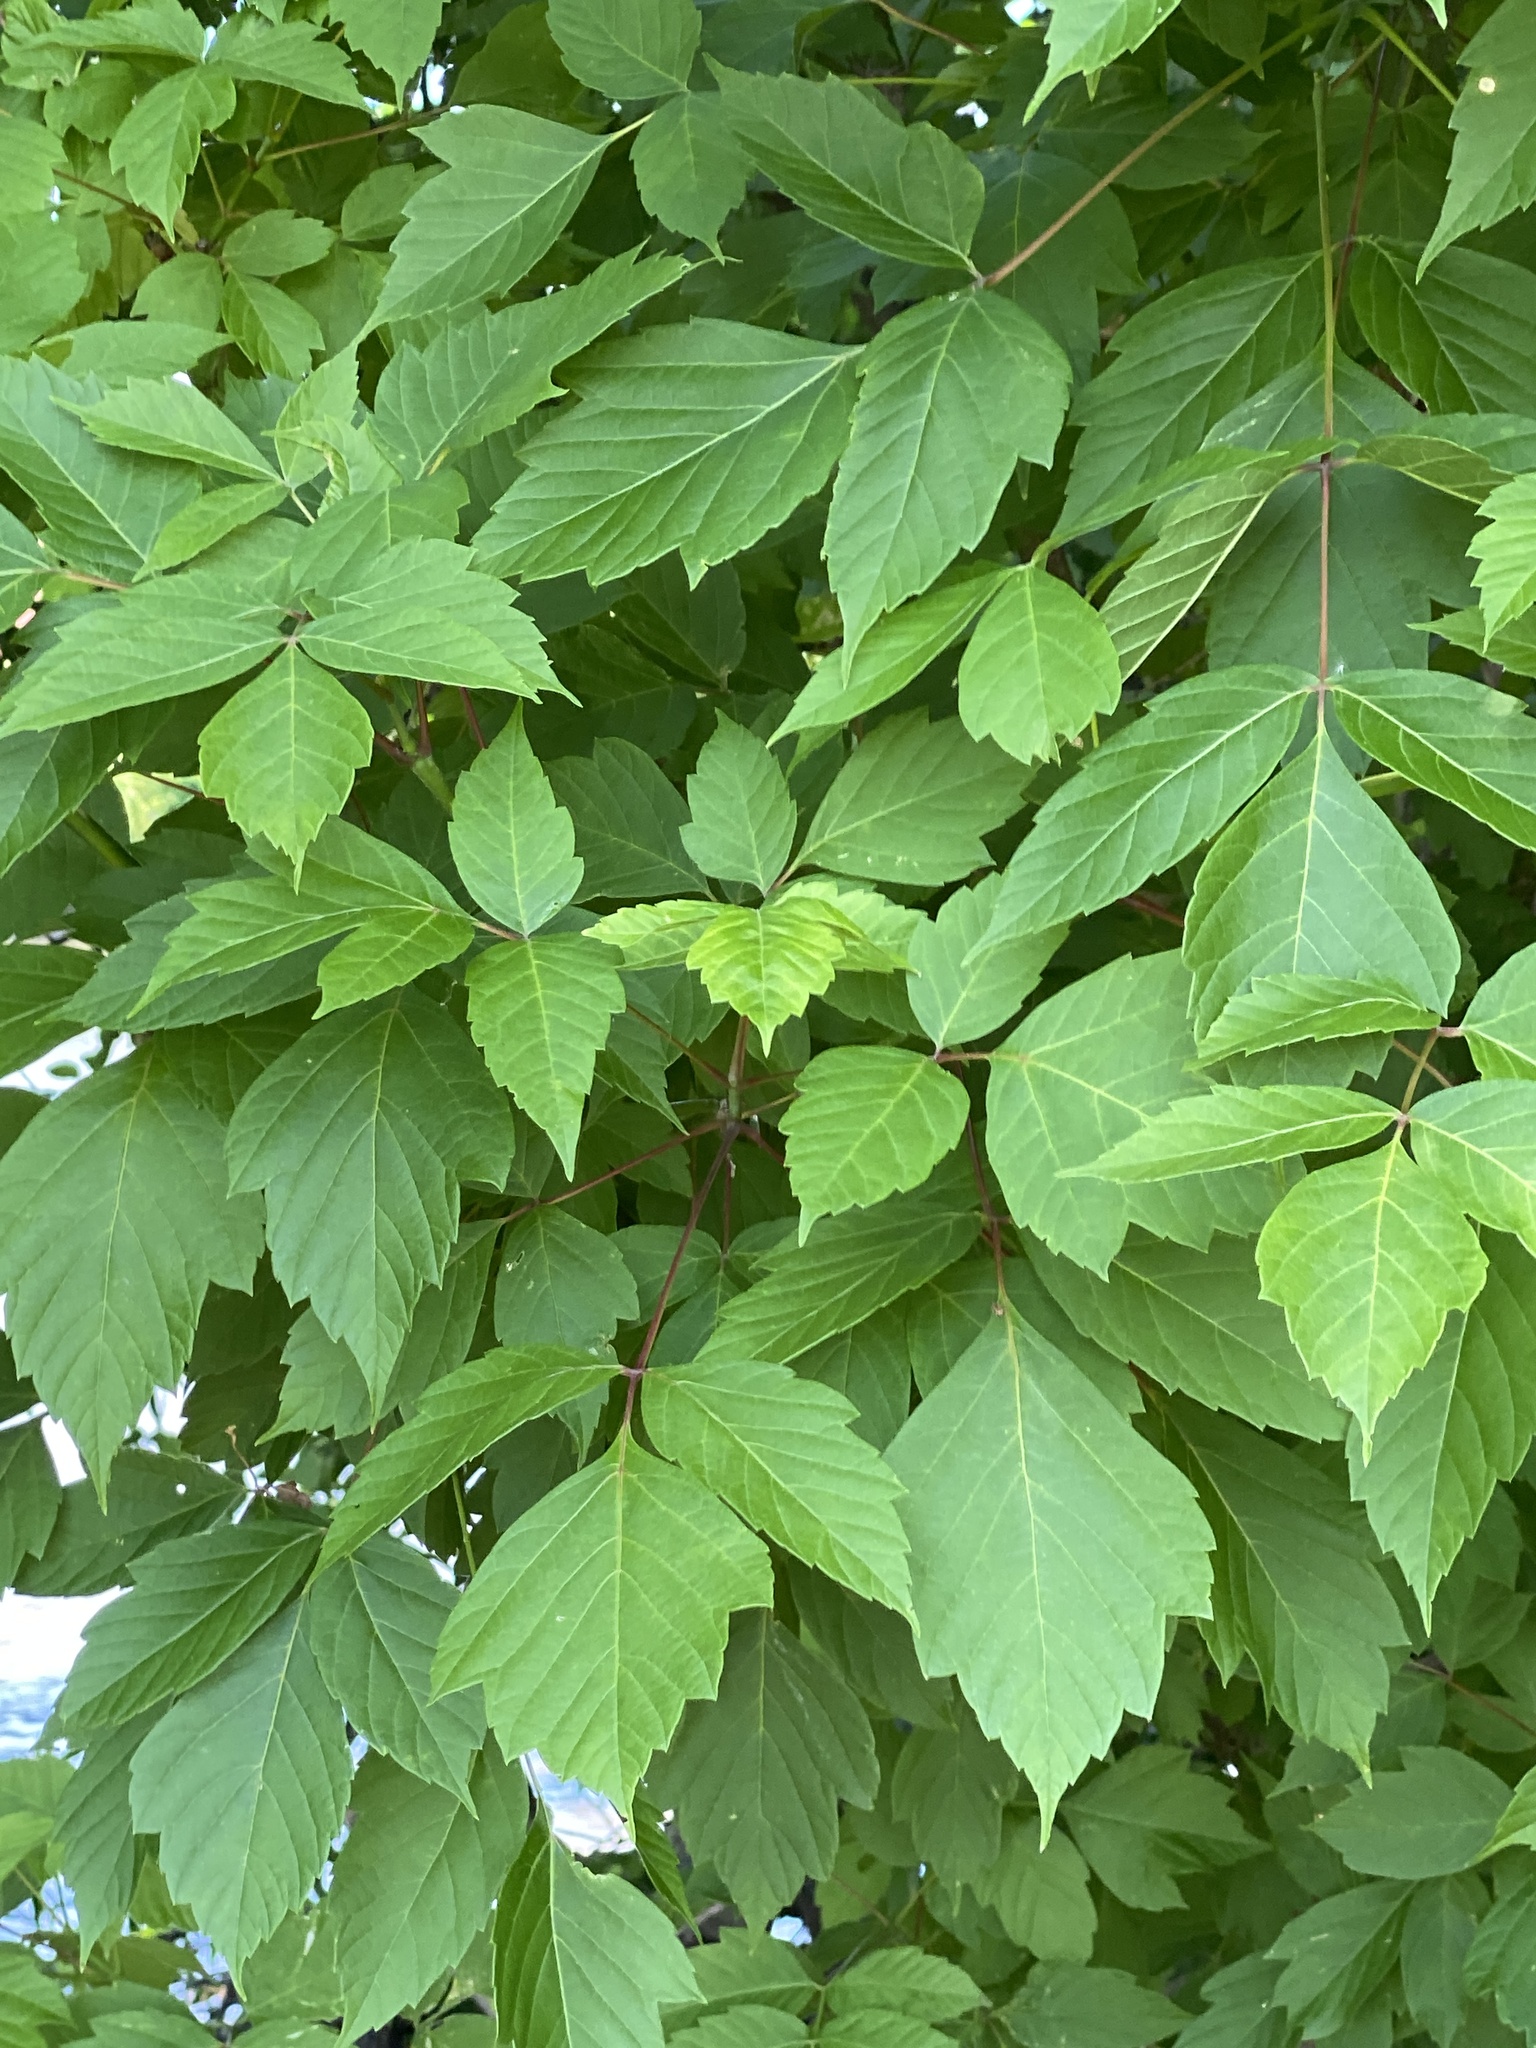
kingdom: Plantae
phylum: Tracheophyta
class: Magnoliopsida
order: Sapindales
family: Sapindaceae
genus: Acer
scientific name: Acer negundo
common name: Ashleaf maple
